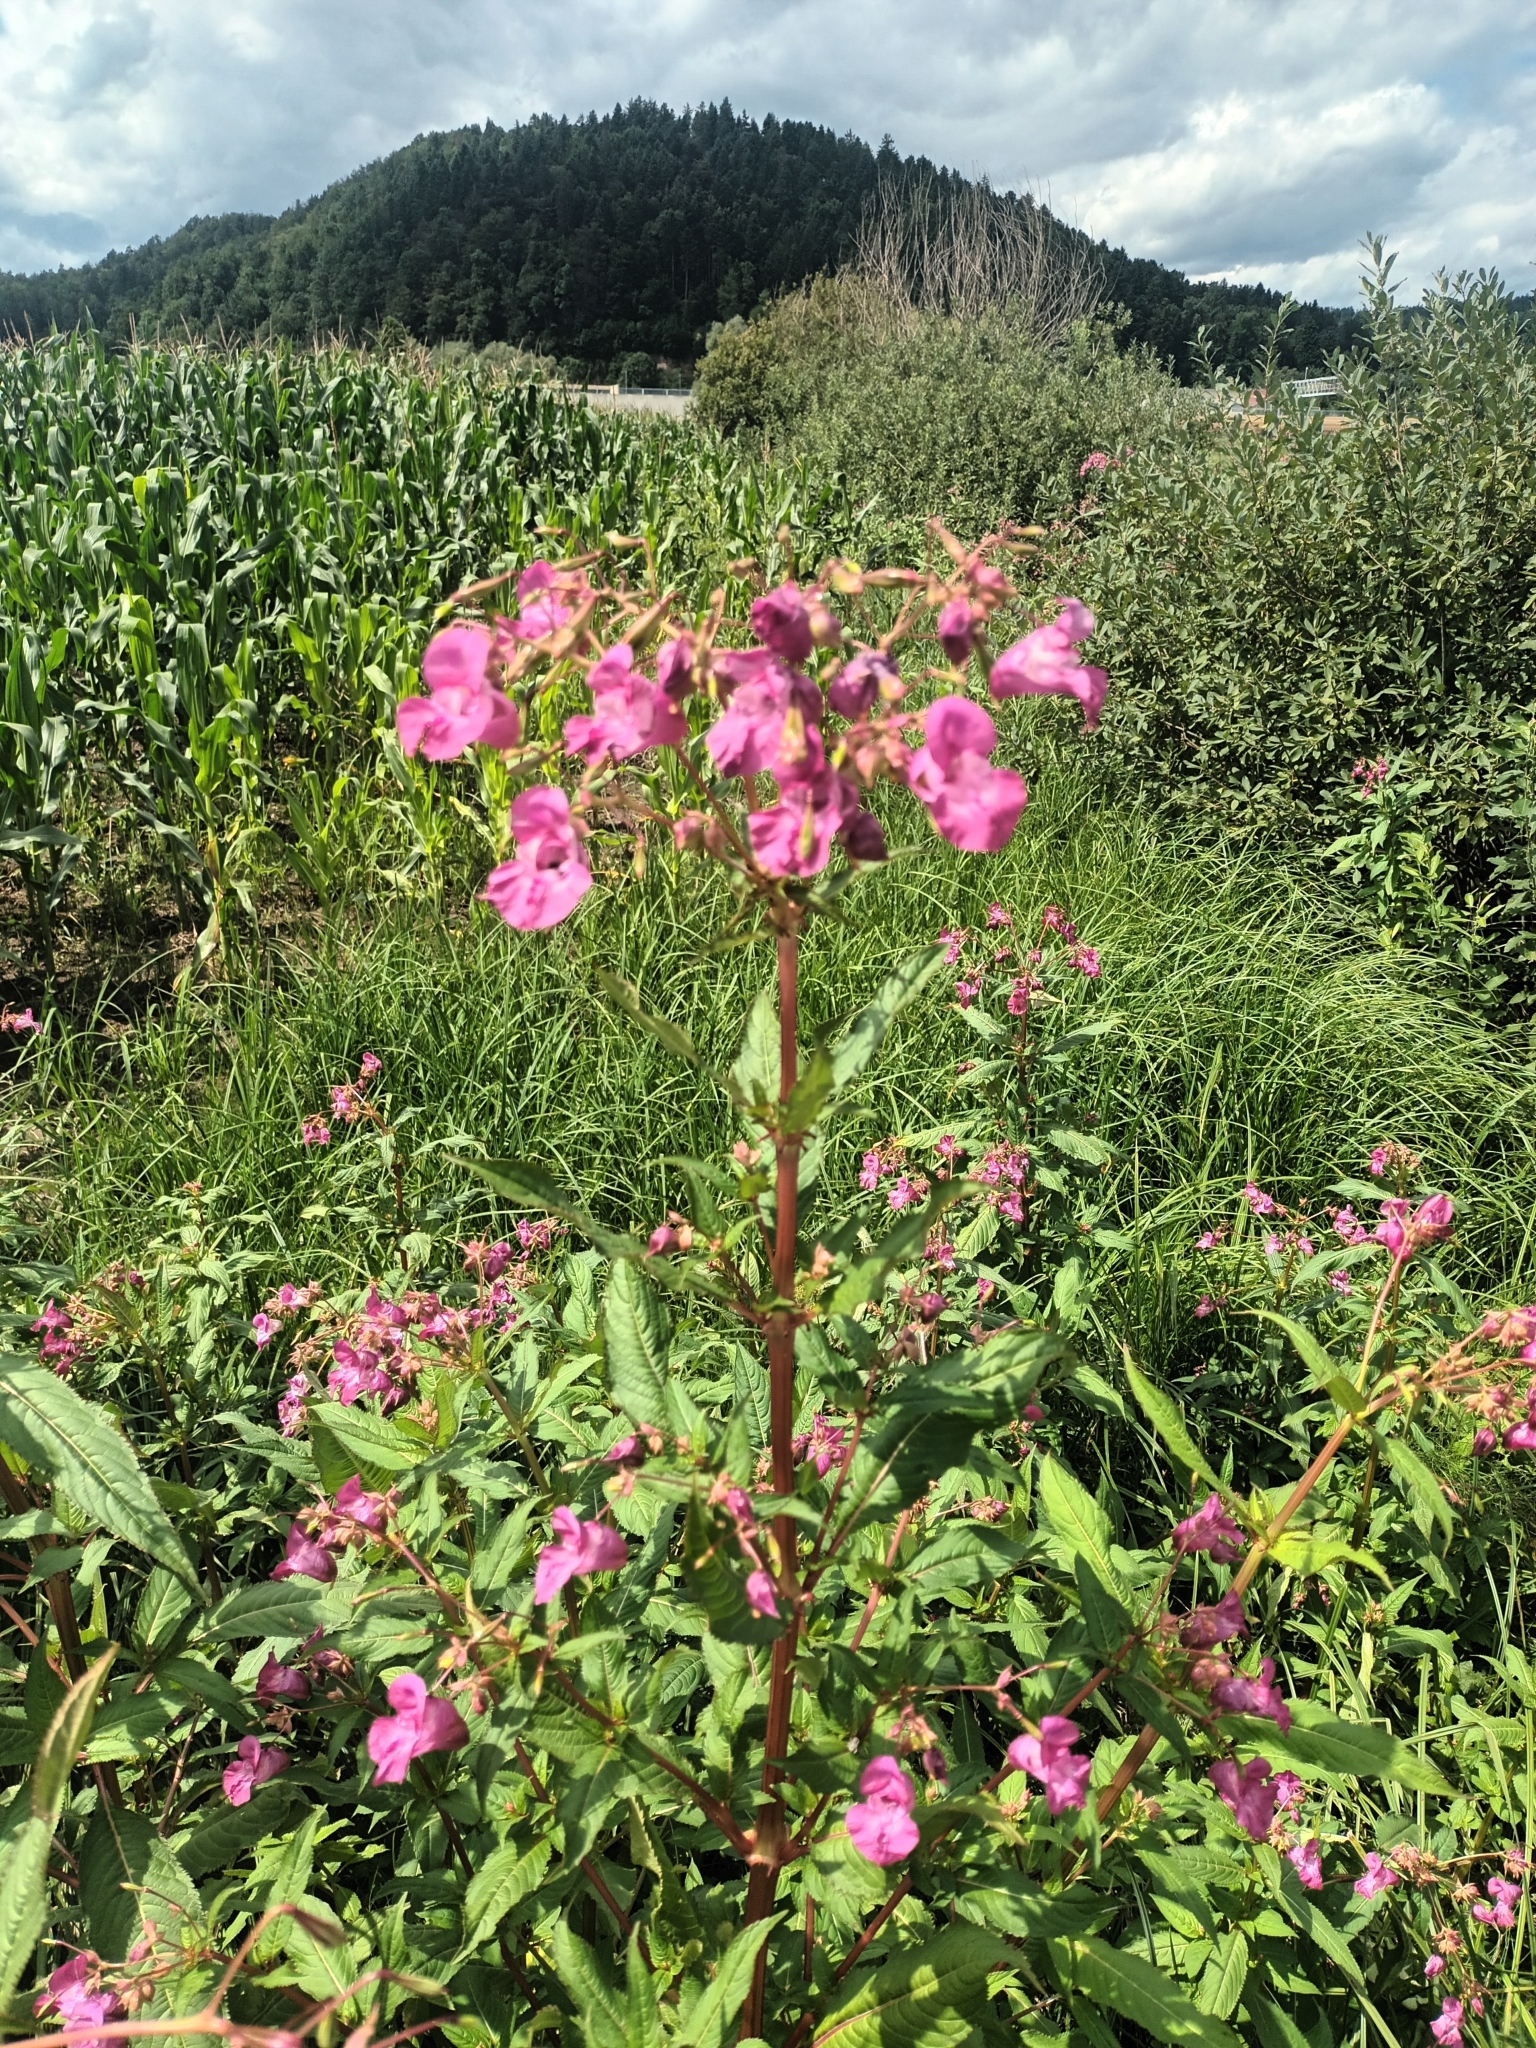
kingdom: Plantae
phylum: Tracheophyta
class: Magnoliopsida
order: Ericales
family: Balsaminaceae
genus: Impatiens
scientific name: Impatiens glandulifera
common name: Himalayan balsam
